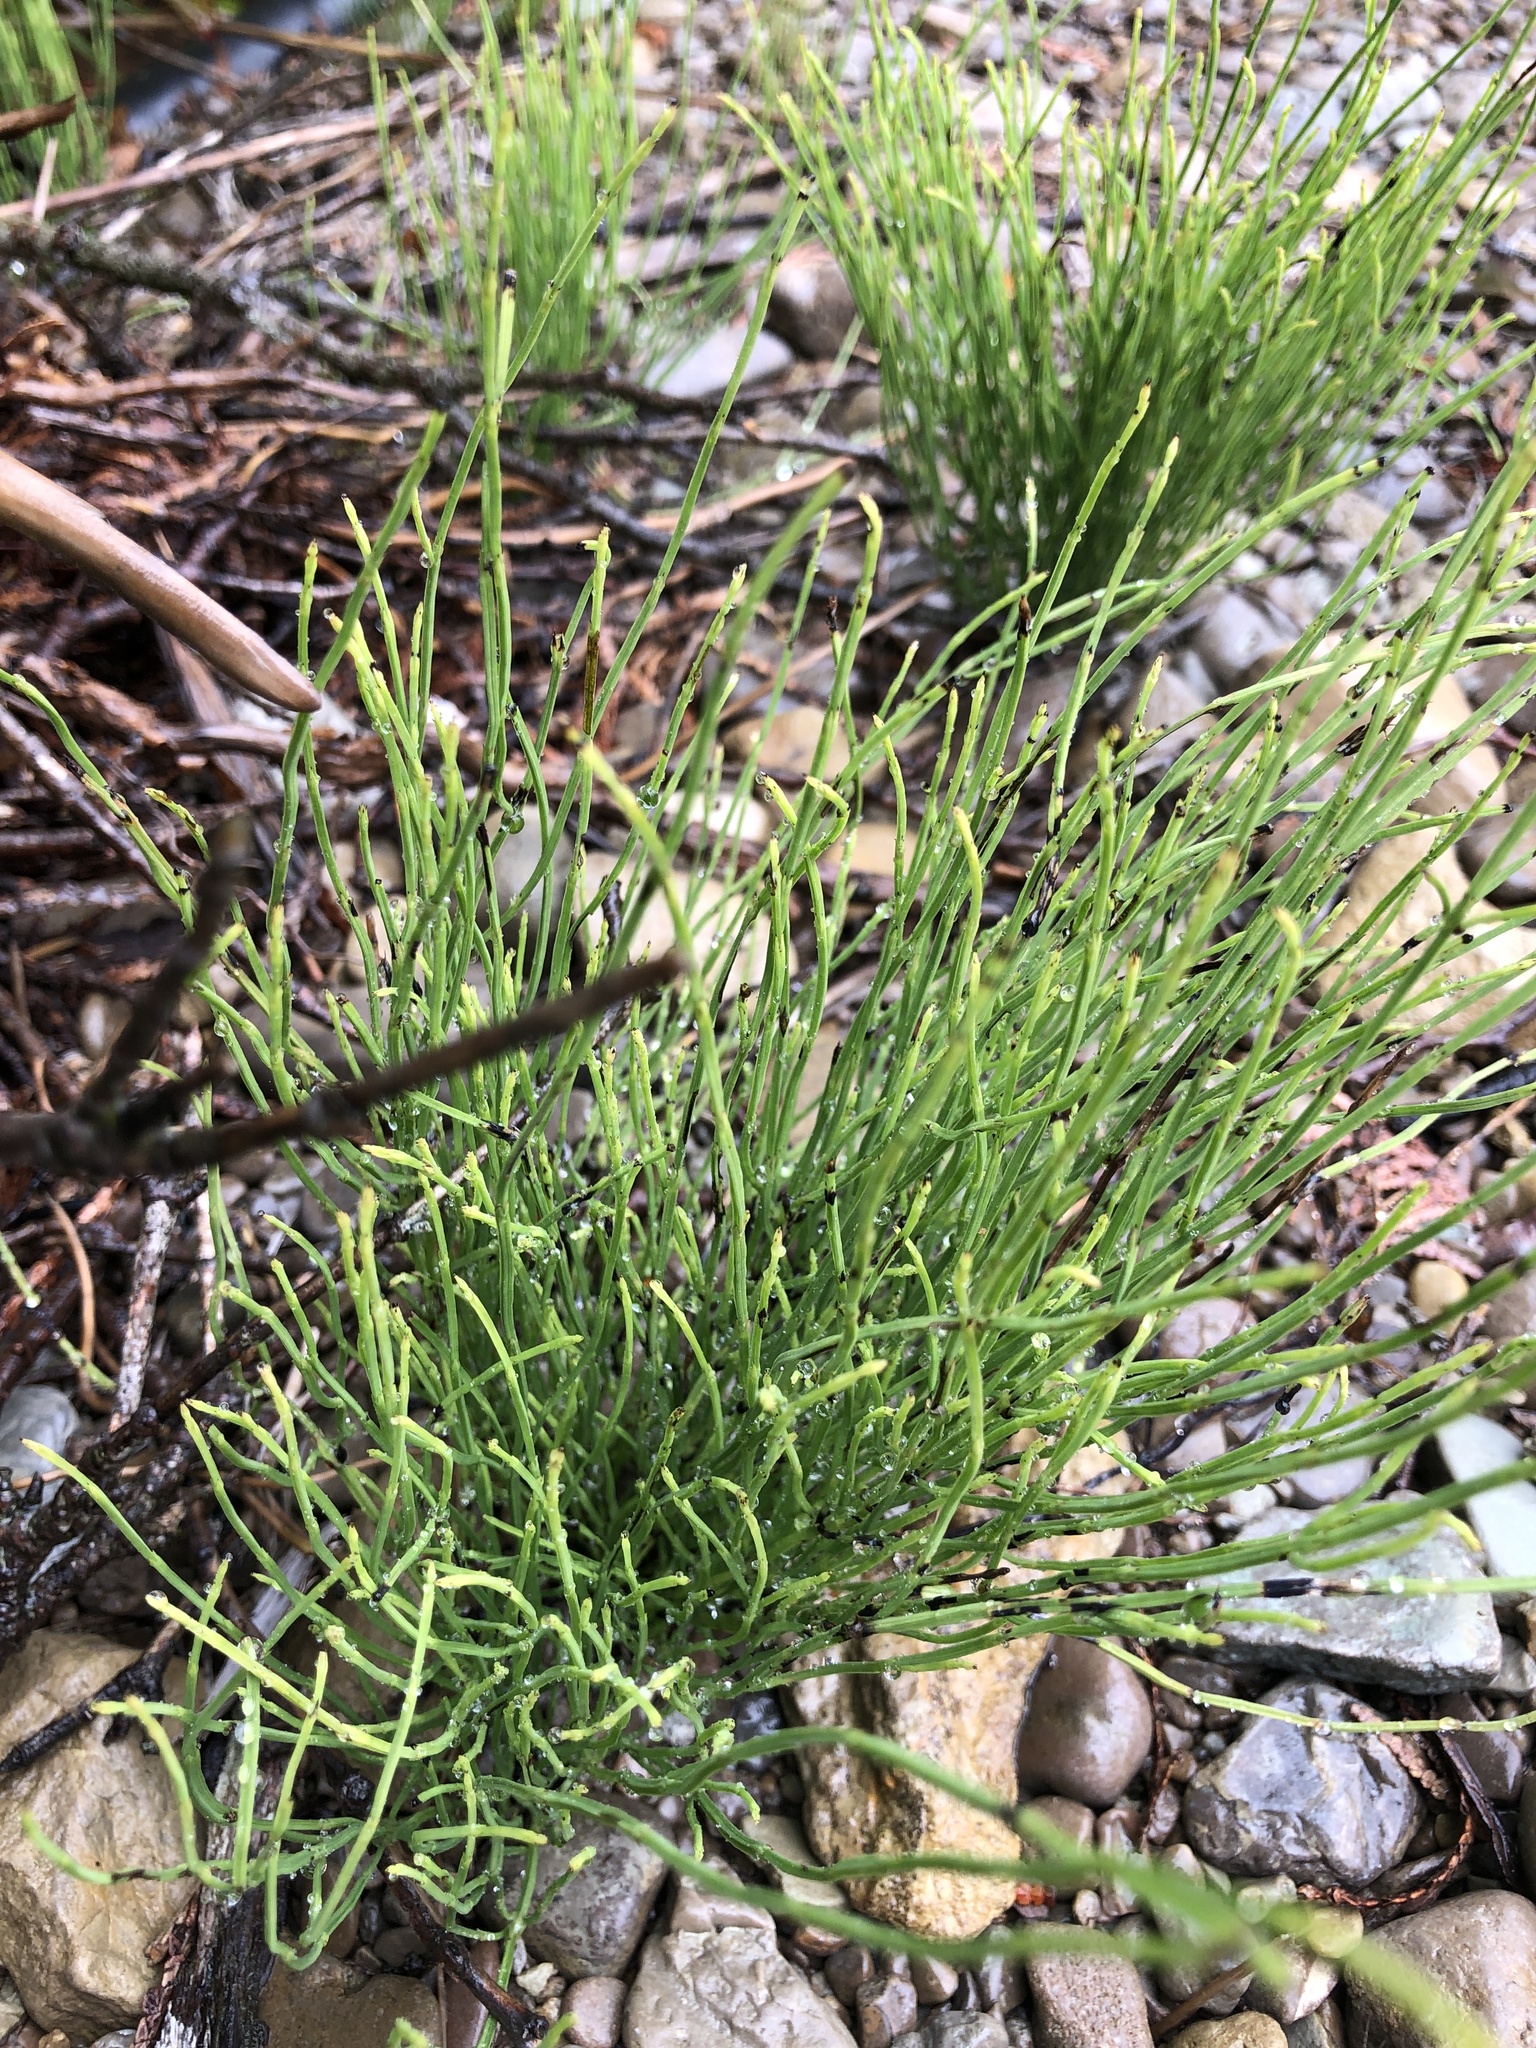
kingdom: Plantae
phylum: Tracheophyta
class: Polypodiopsida
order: Equisetales
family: Equisetaceae
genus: Equisetum
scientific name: Equisetum arvense
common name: Field horsetail
